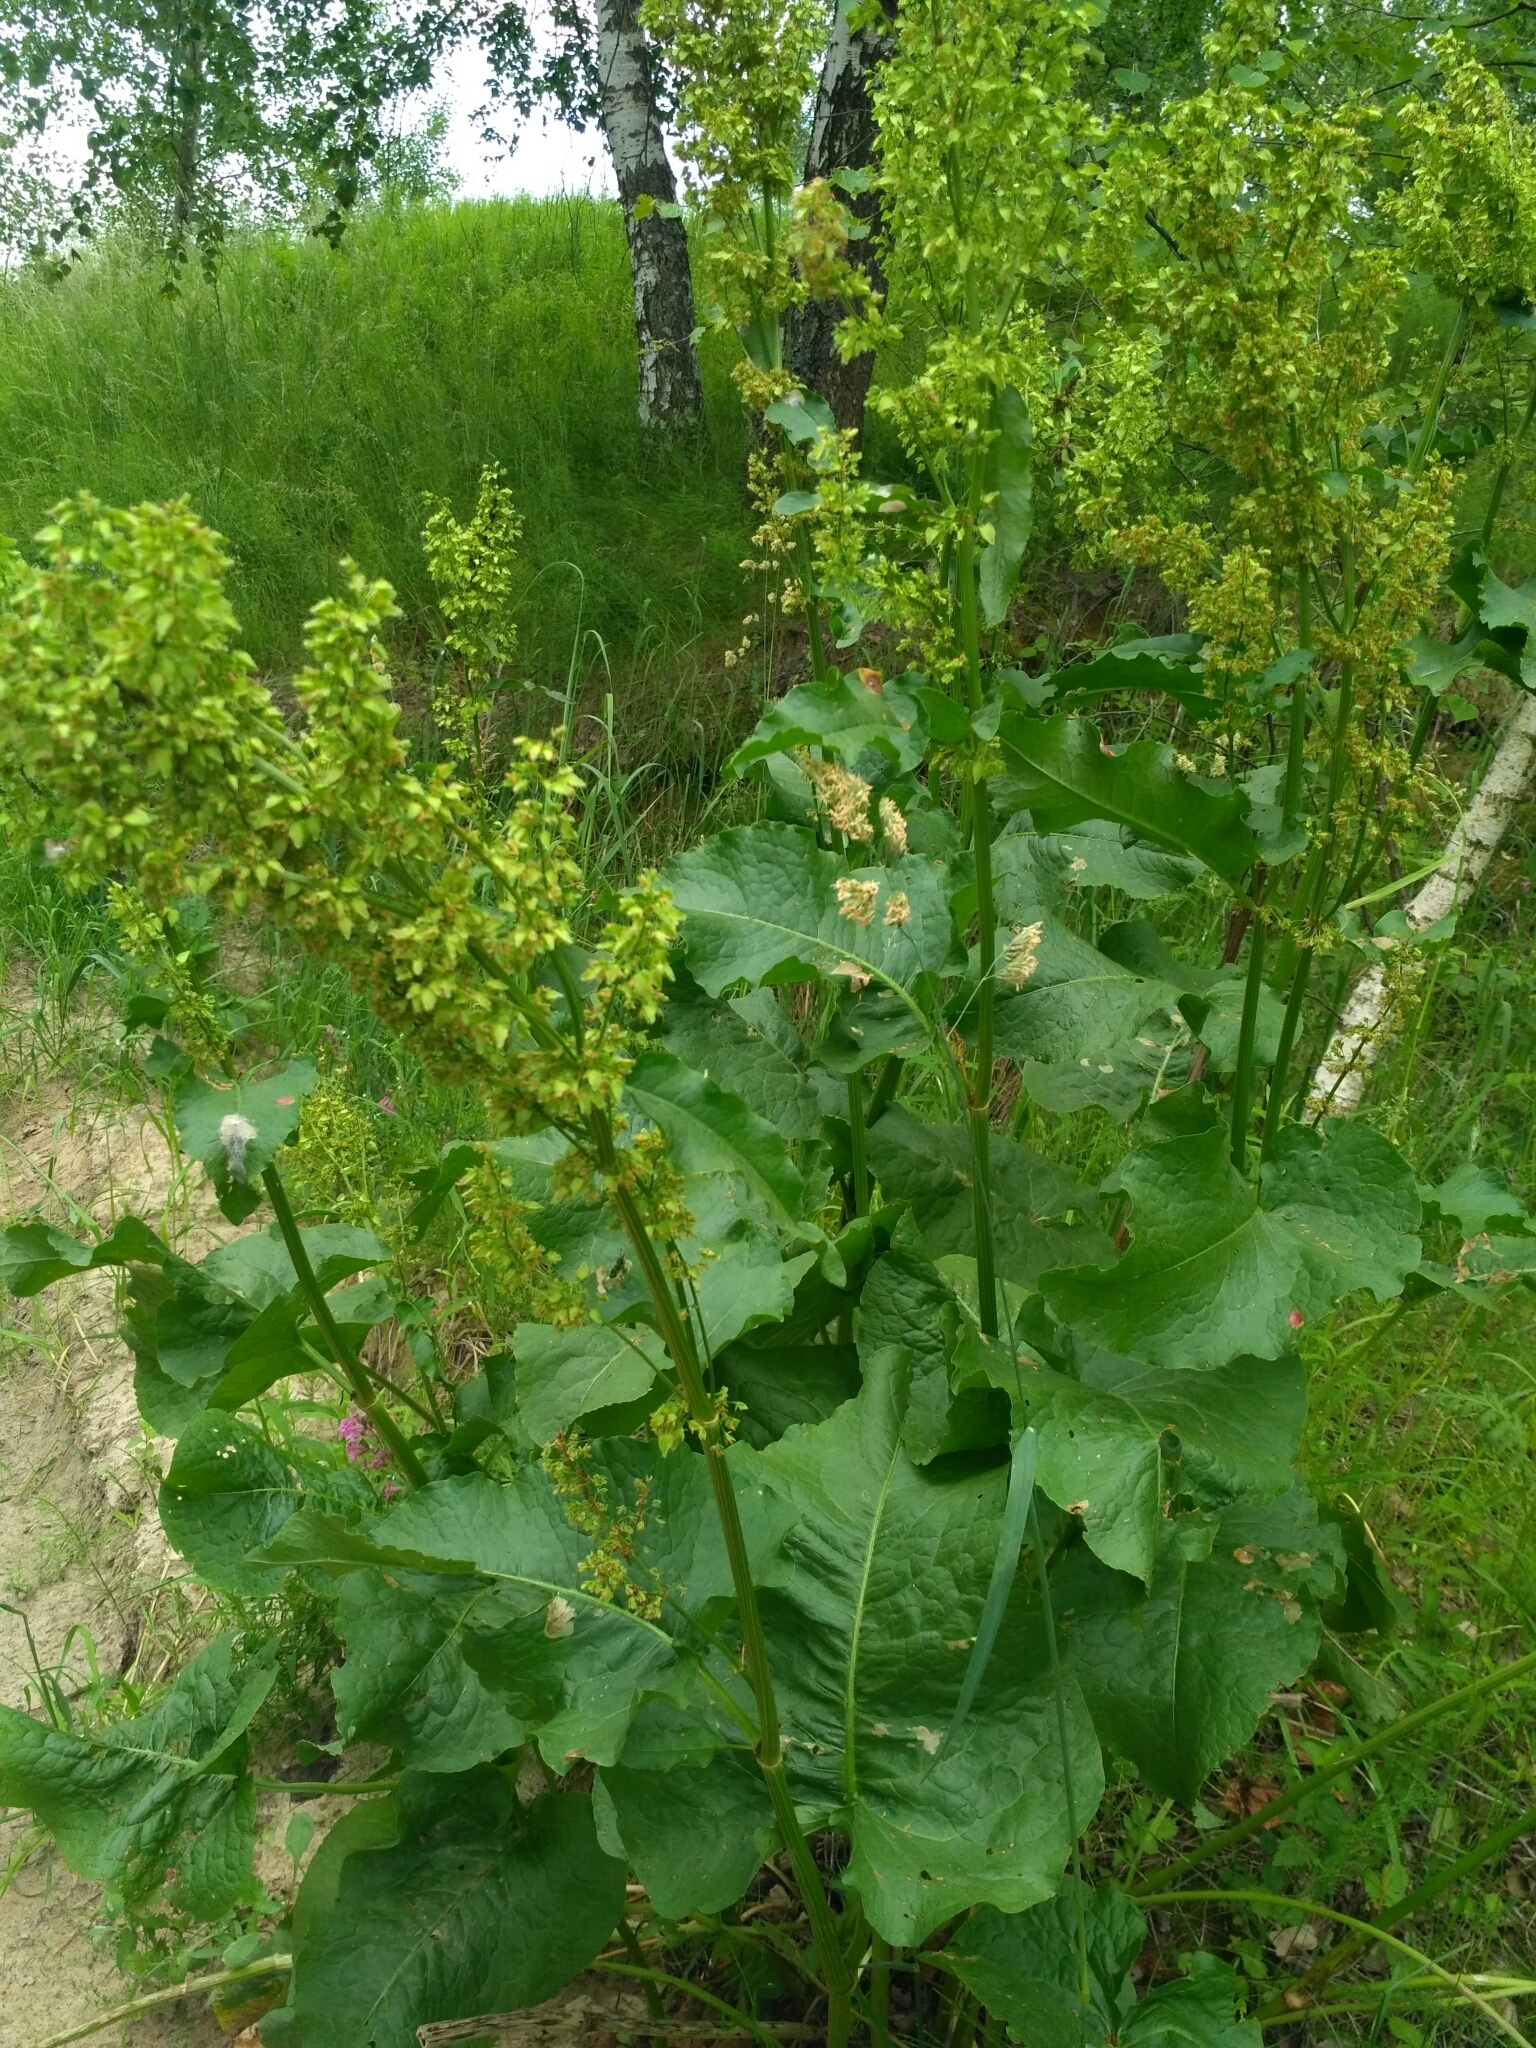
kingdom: Plantae
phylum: Tracheophyta
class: Magnoliopsida
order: Caryophyllales
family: Polygonaceae
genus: Rumex
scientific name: Rumex confertus
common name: Russian dock
